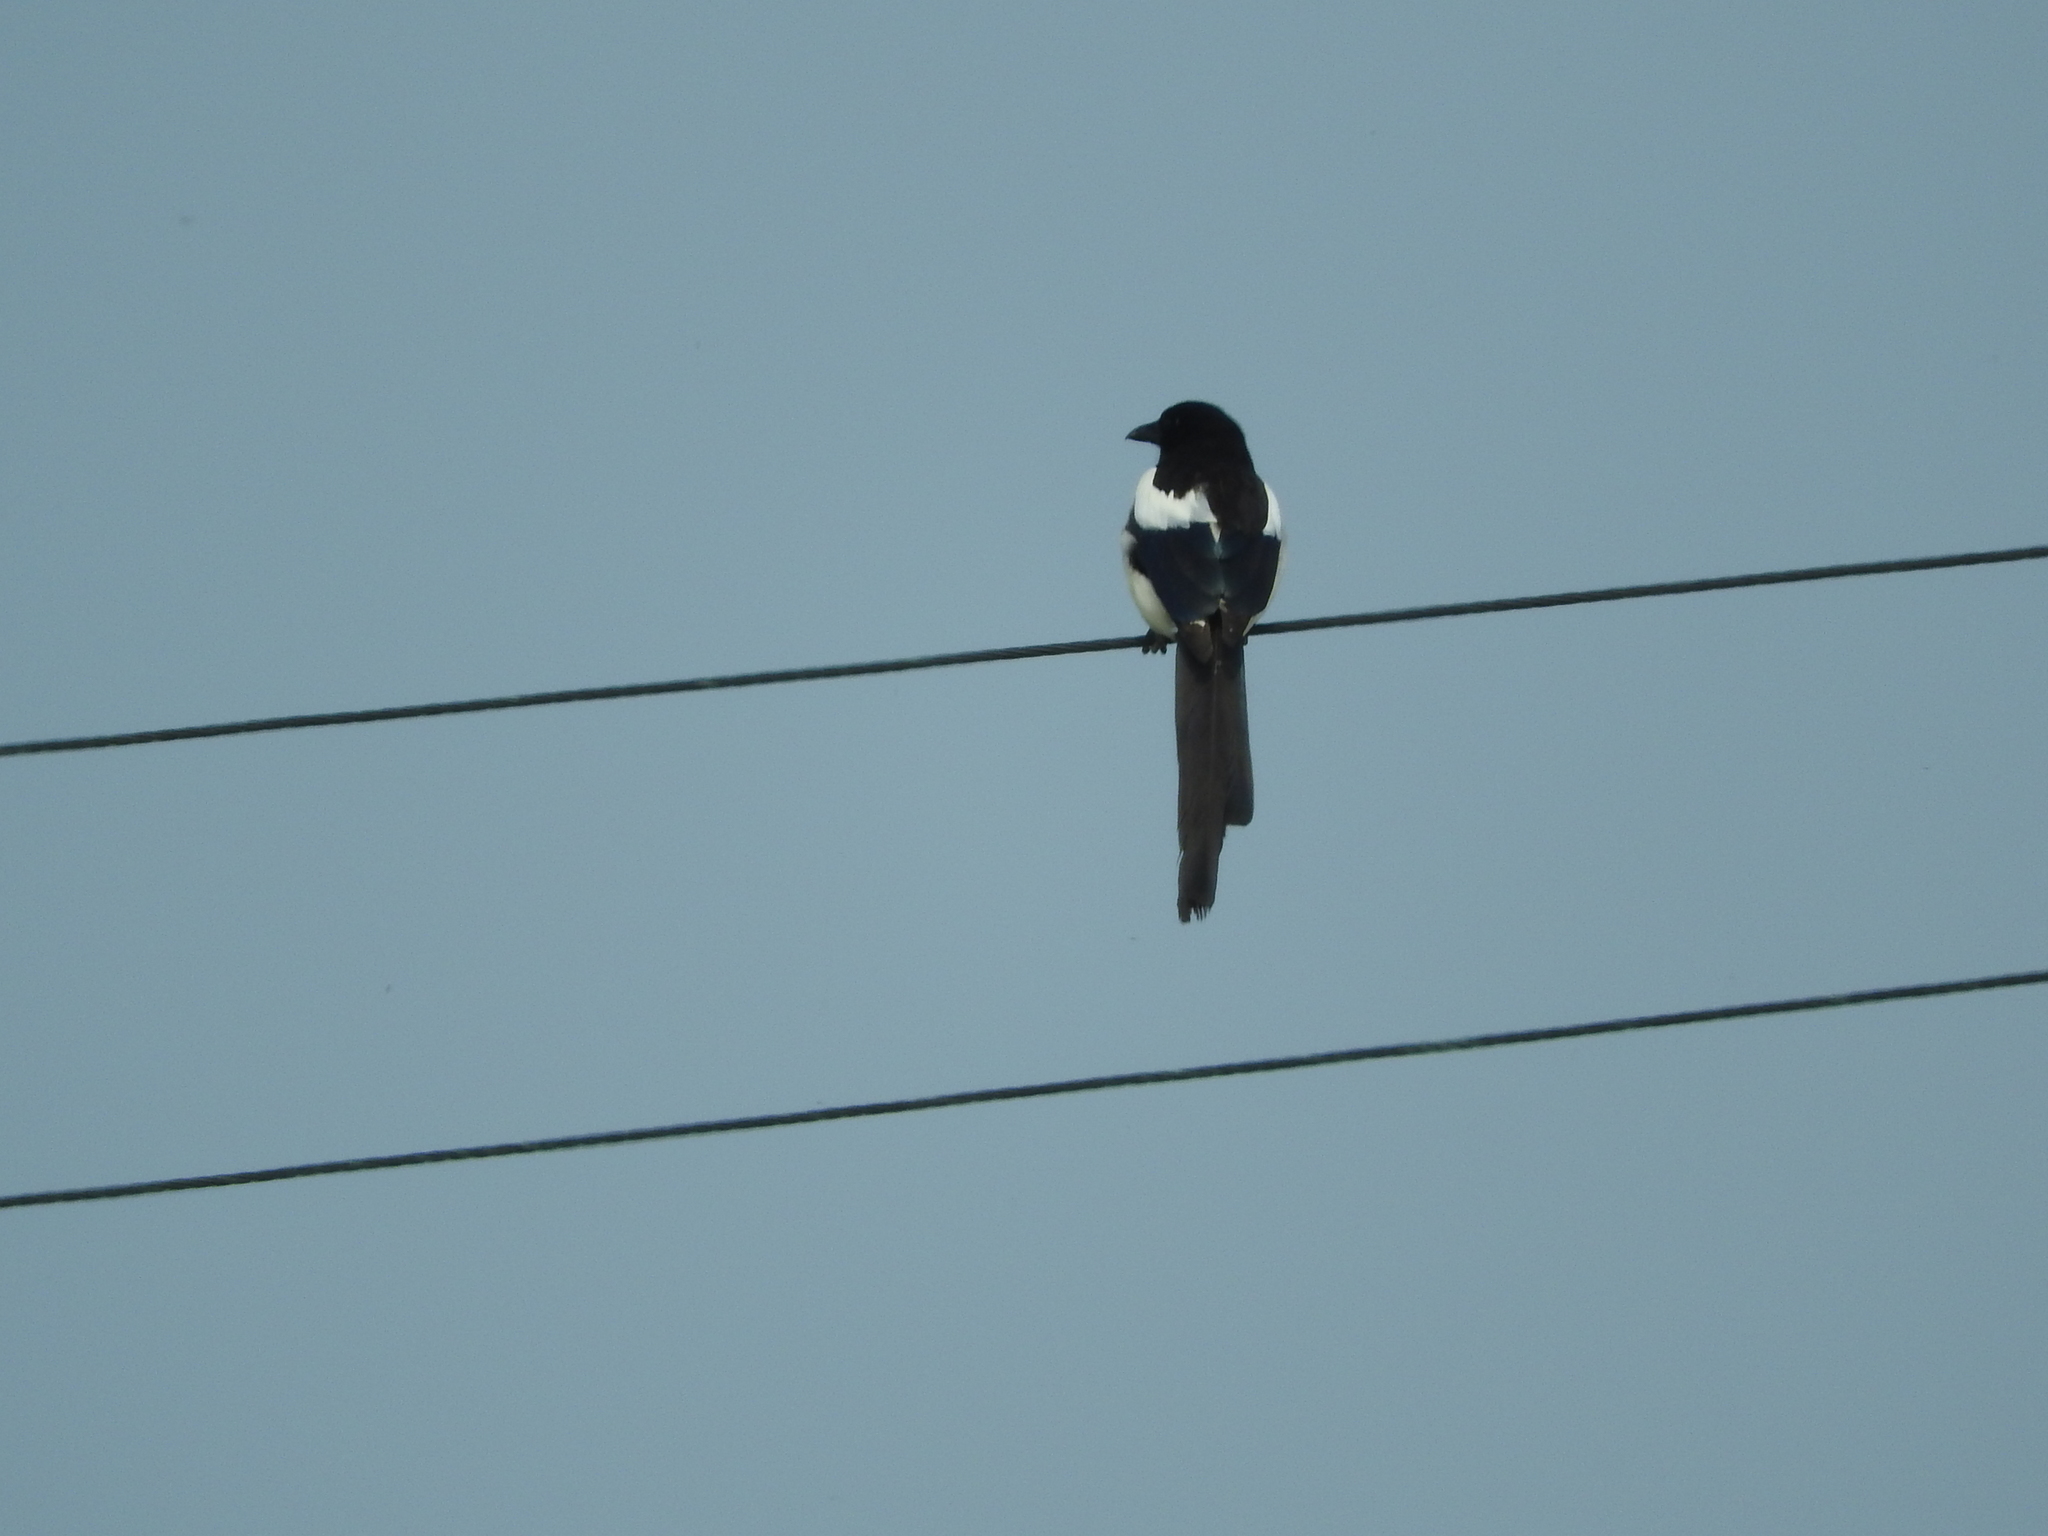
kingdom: Animalia
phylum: Chordata
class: Aves
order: Passeriformes
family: Corvidae
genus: Pica
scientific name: Pica pica
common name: Eurasian magpie
